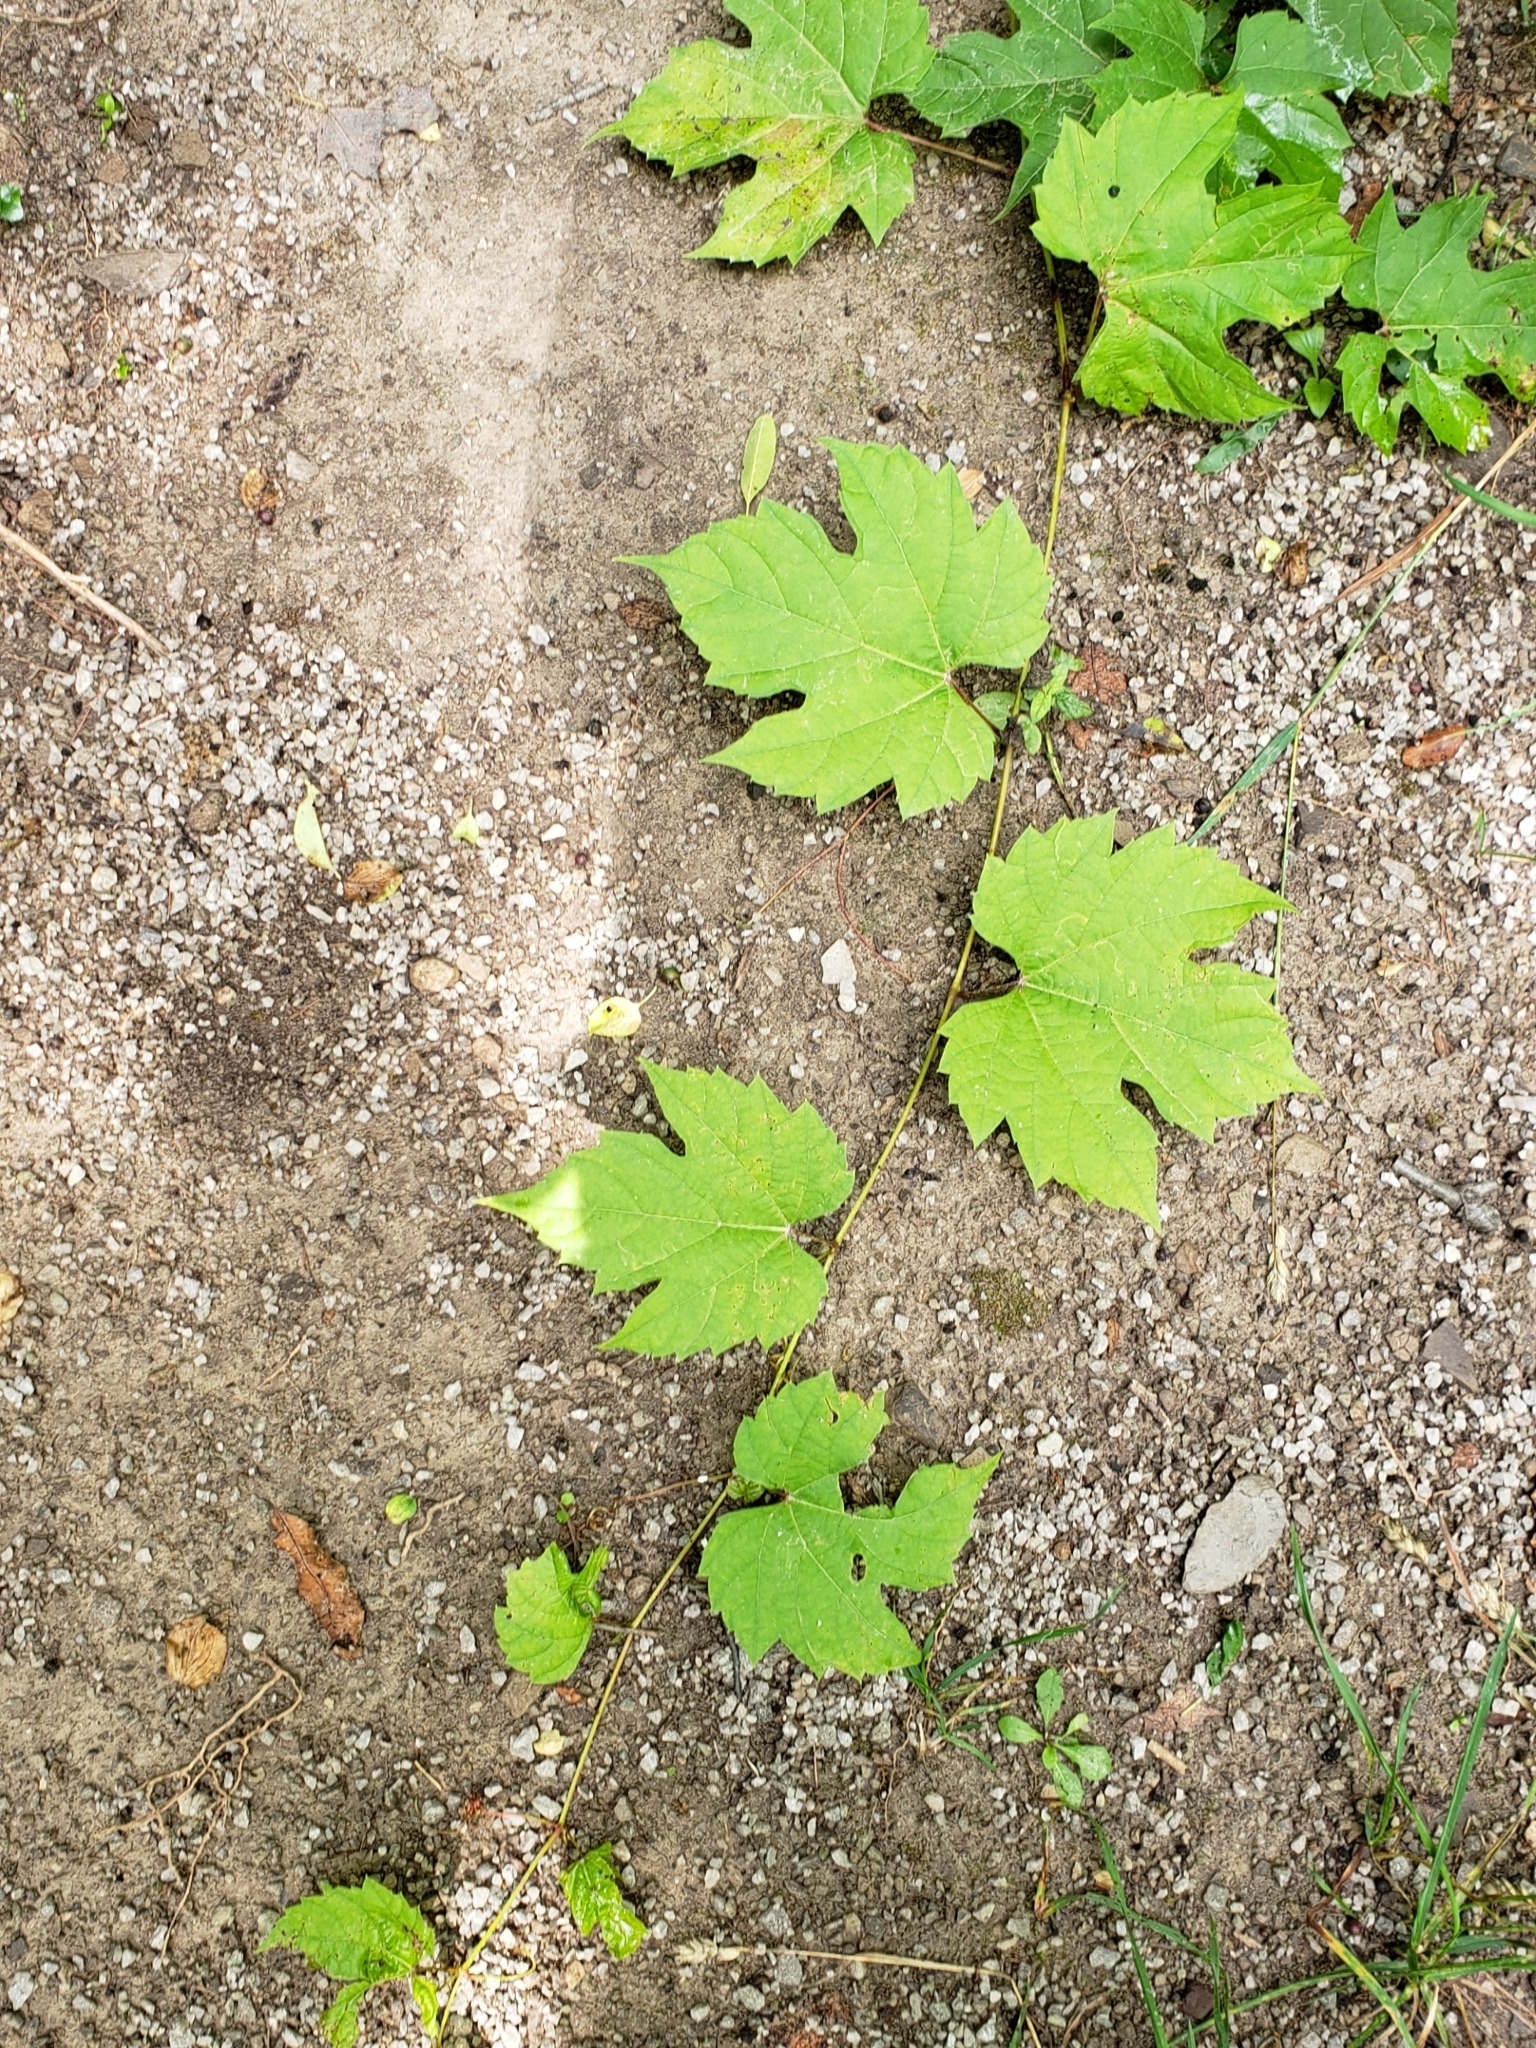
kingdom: Plantae
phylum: Tracheophyta
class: Magnoliopsida
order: Vitales
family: Vitaceae
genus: Vitis
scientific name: Vitis aestivalis
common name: Pigeon grape
